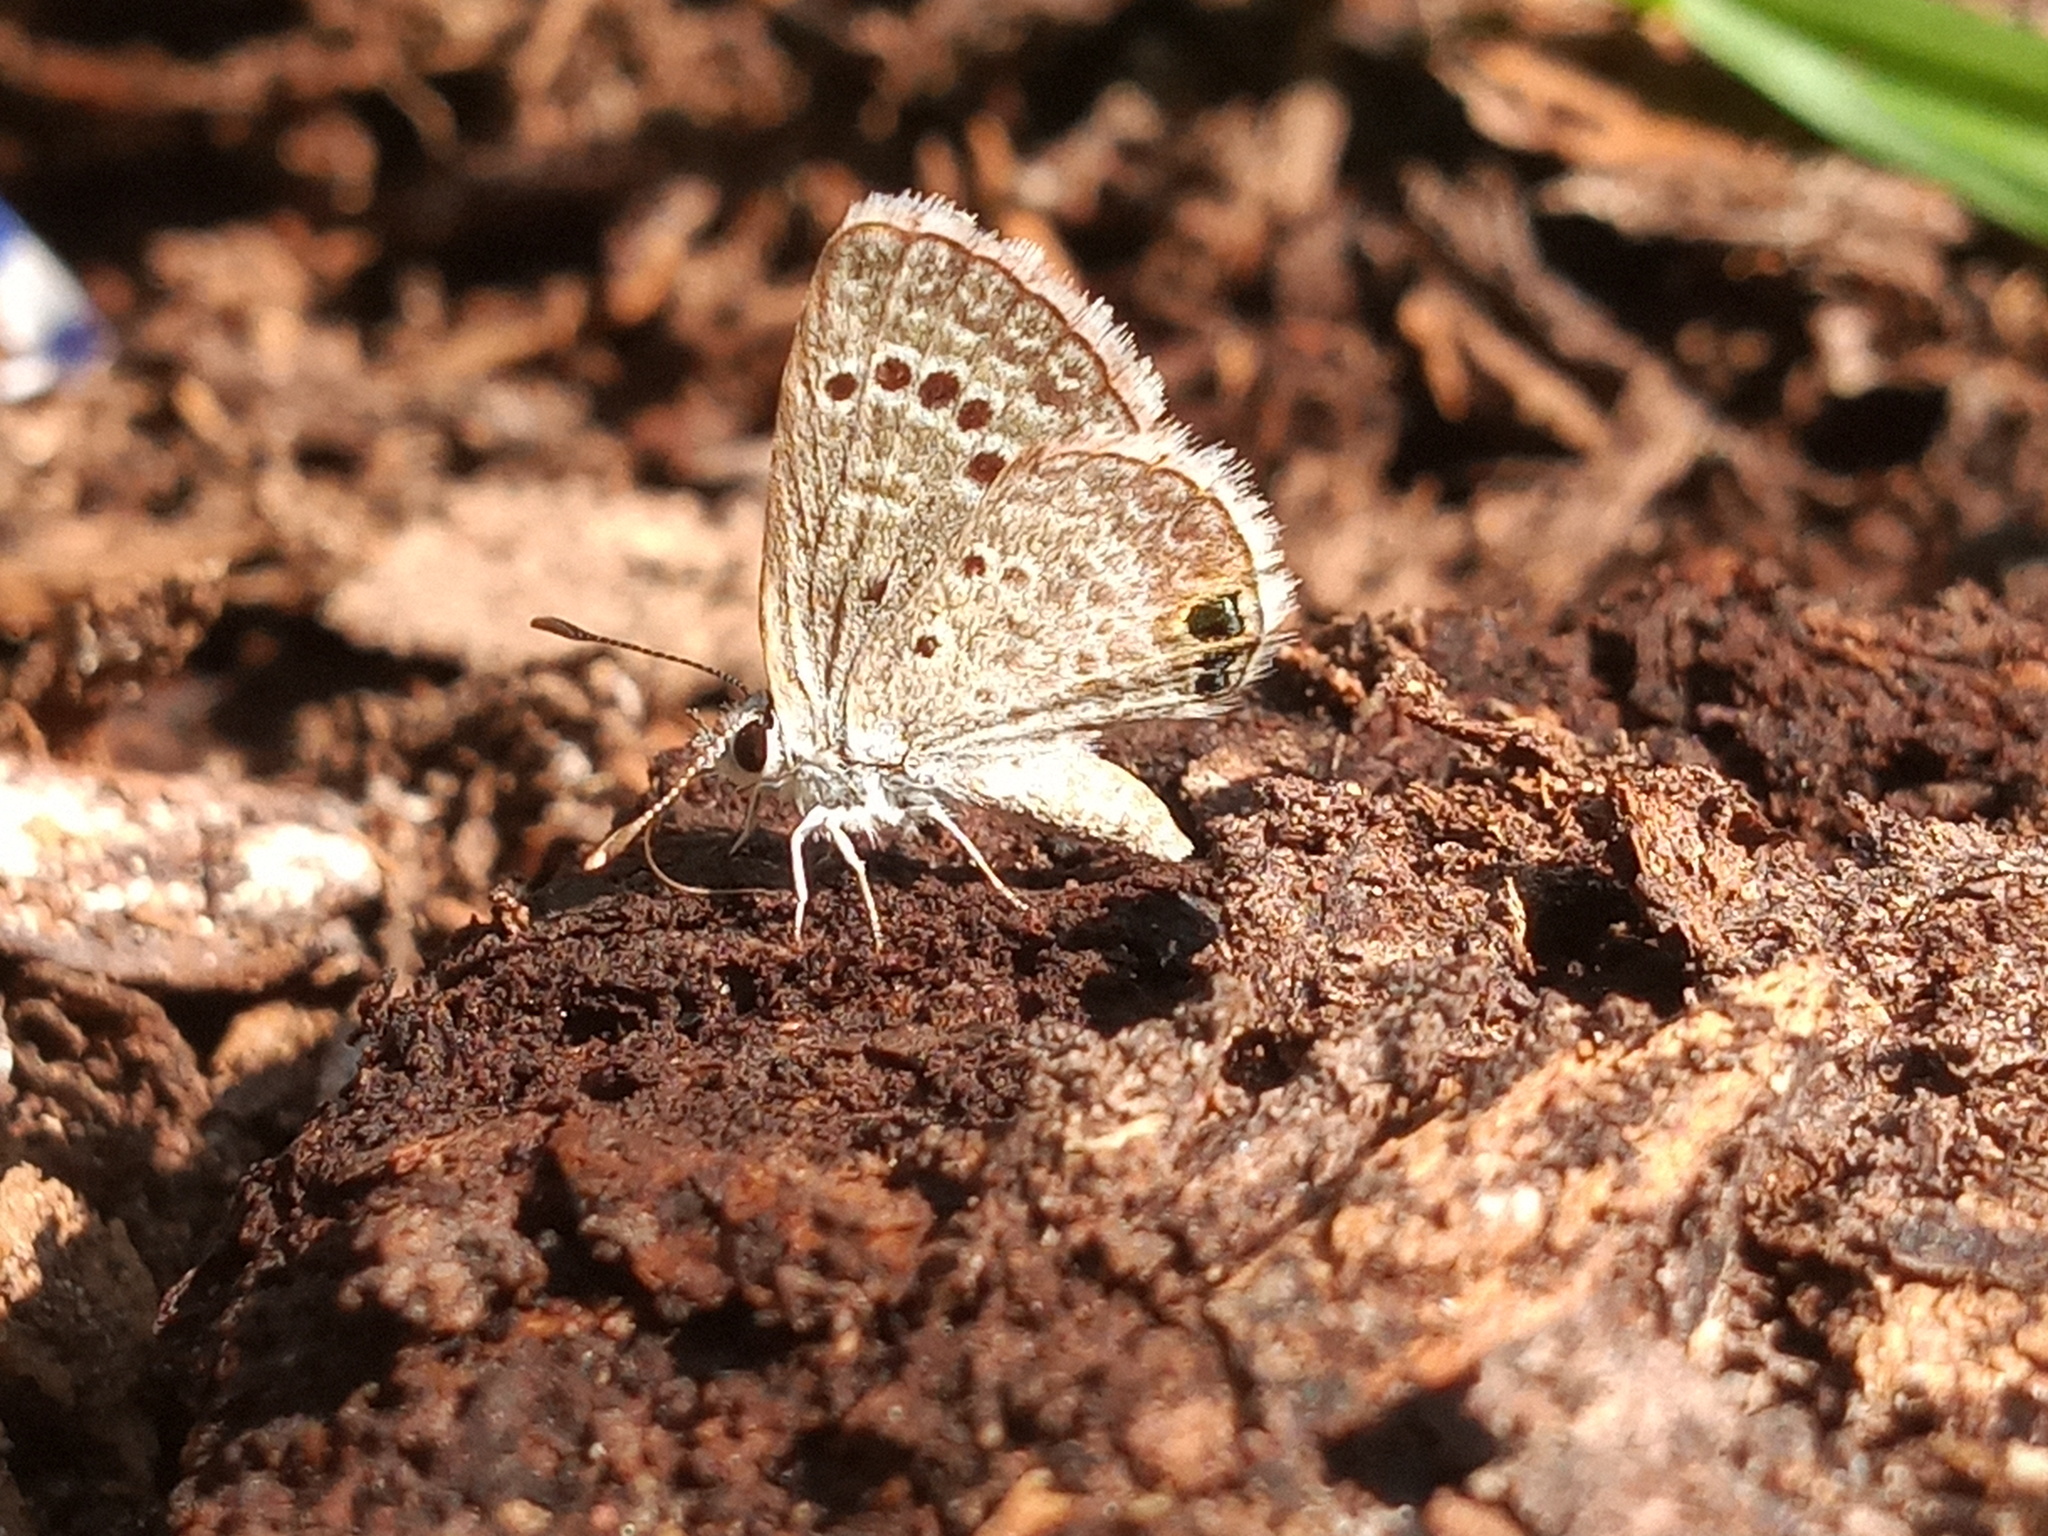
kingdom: Animalia
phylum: Arthropoda
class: Insecta
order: Lepidoptera
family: Lycaenidae
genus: Echinargus
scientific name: Echinargus isola
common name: Reakirt's blue
